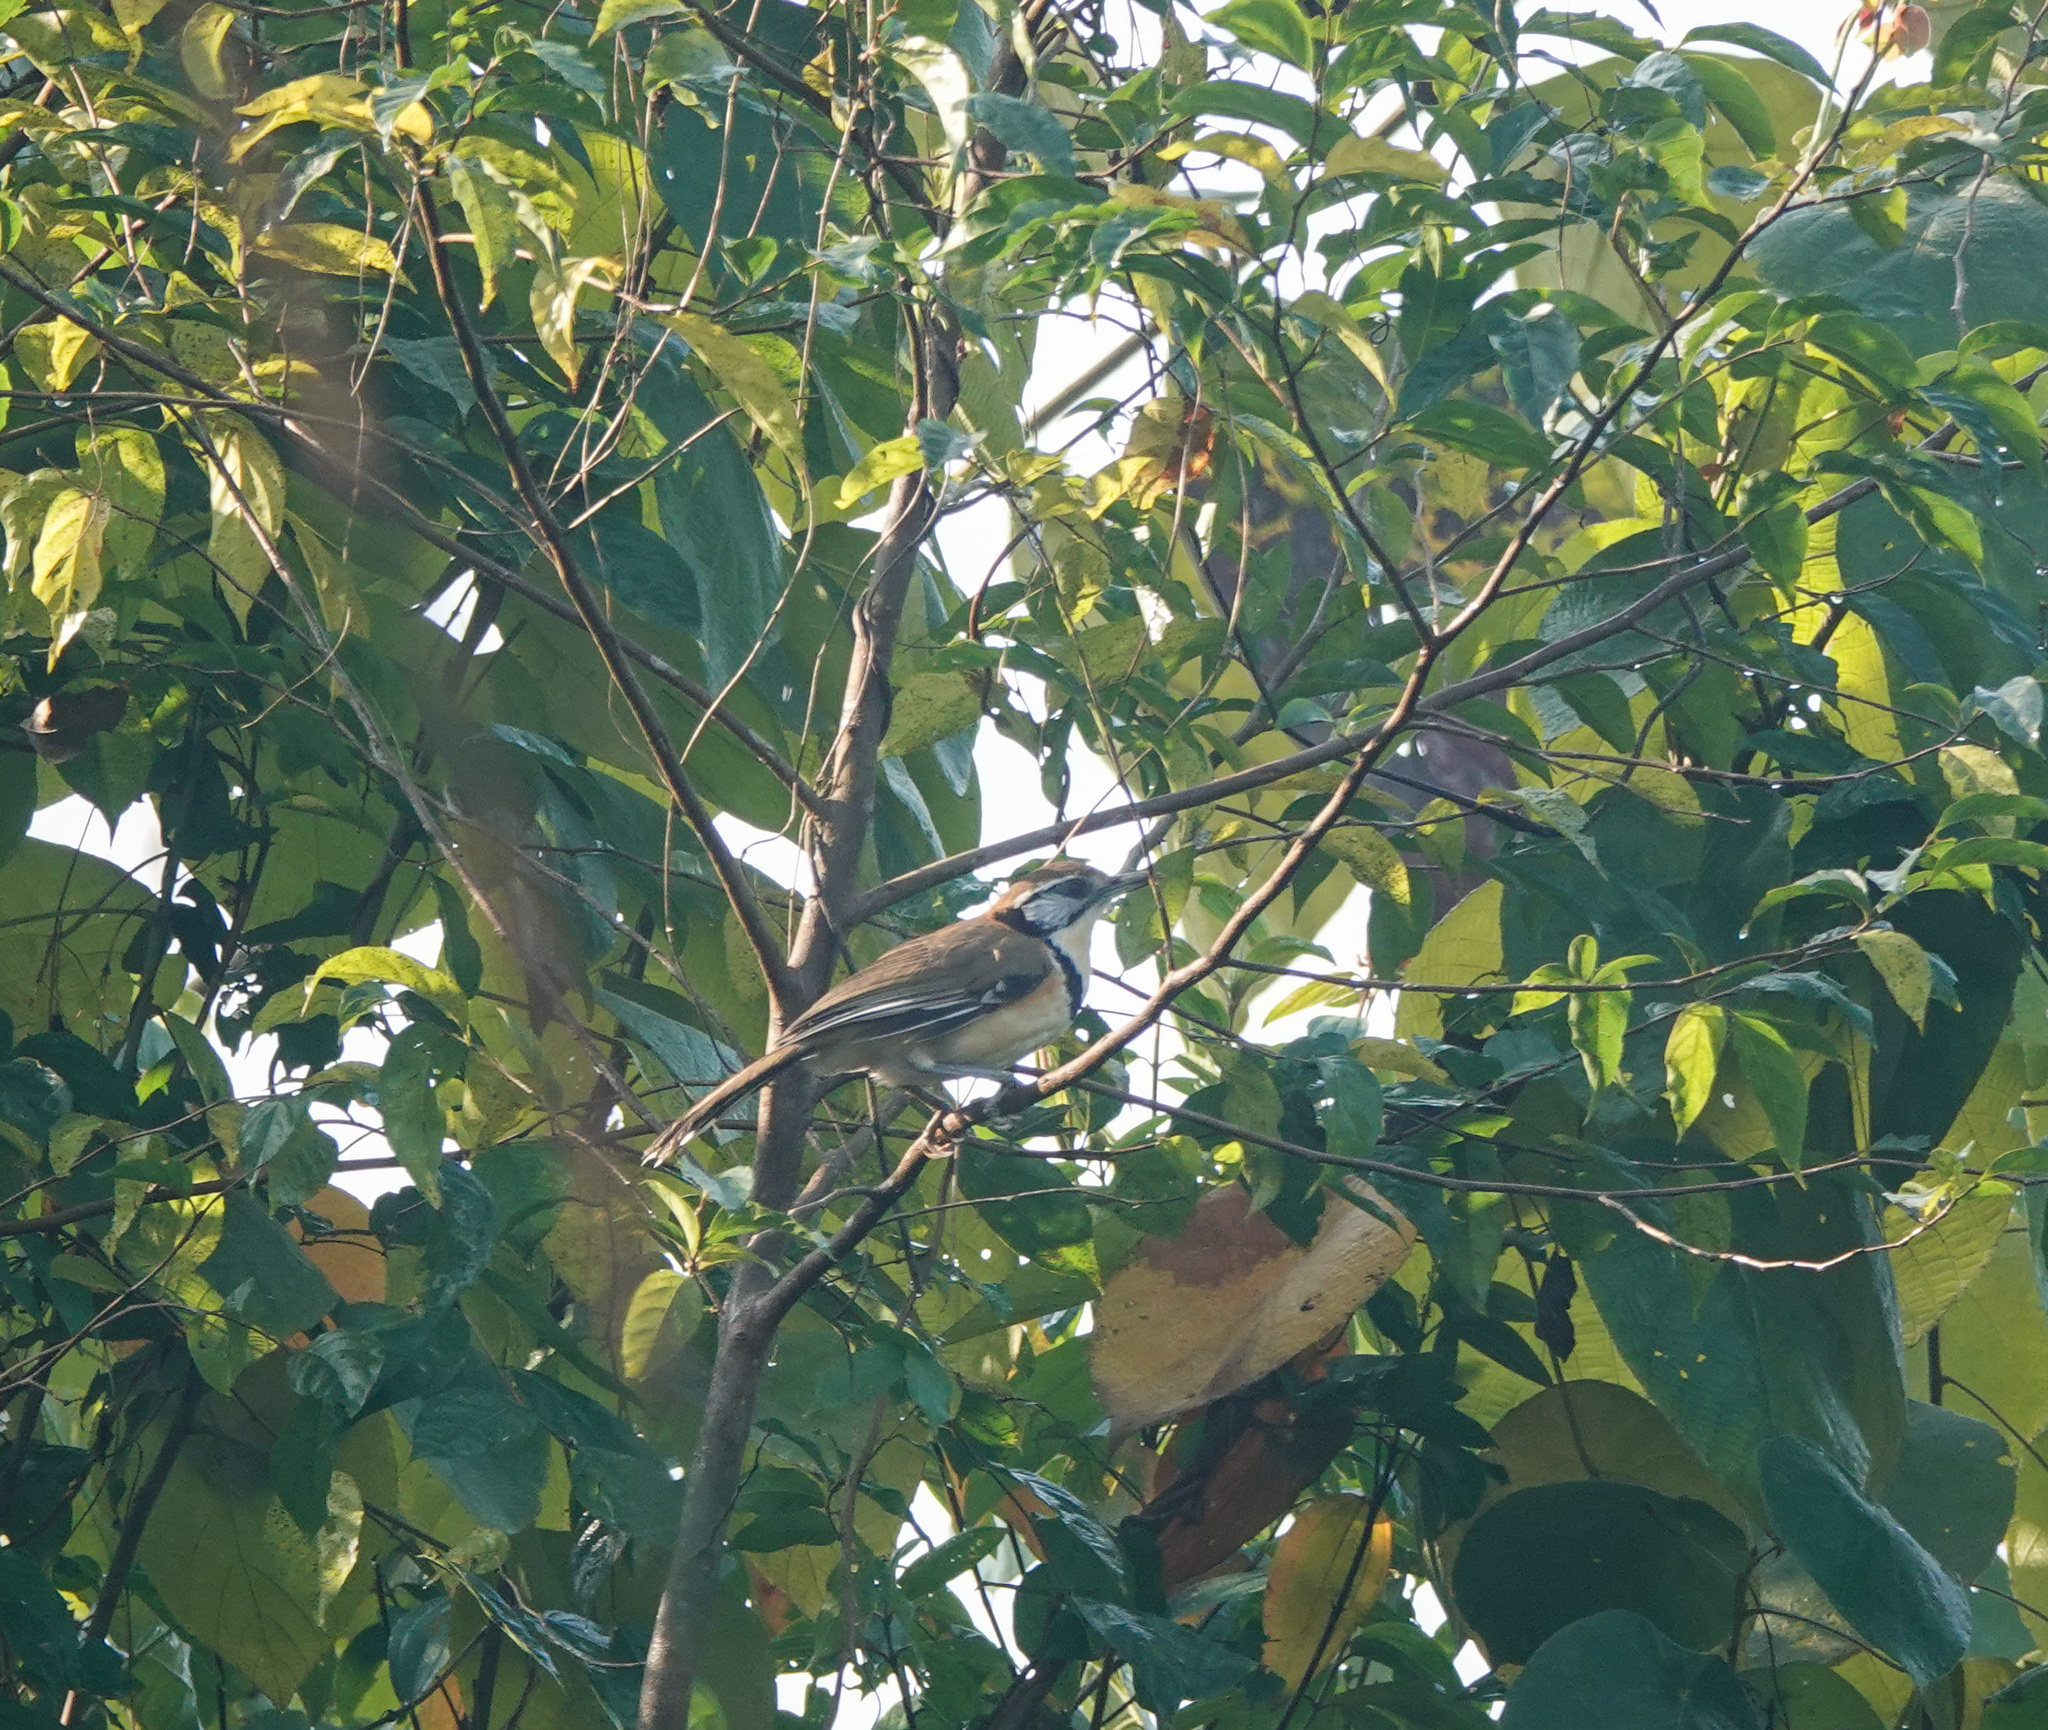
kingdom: Animalia
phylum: Chordata
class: Aves
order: Passeriformes
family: Leiothrichidae
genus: Garrulax
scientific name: Garrulax pectoralis
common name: Greater necklaced laughingthrush
